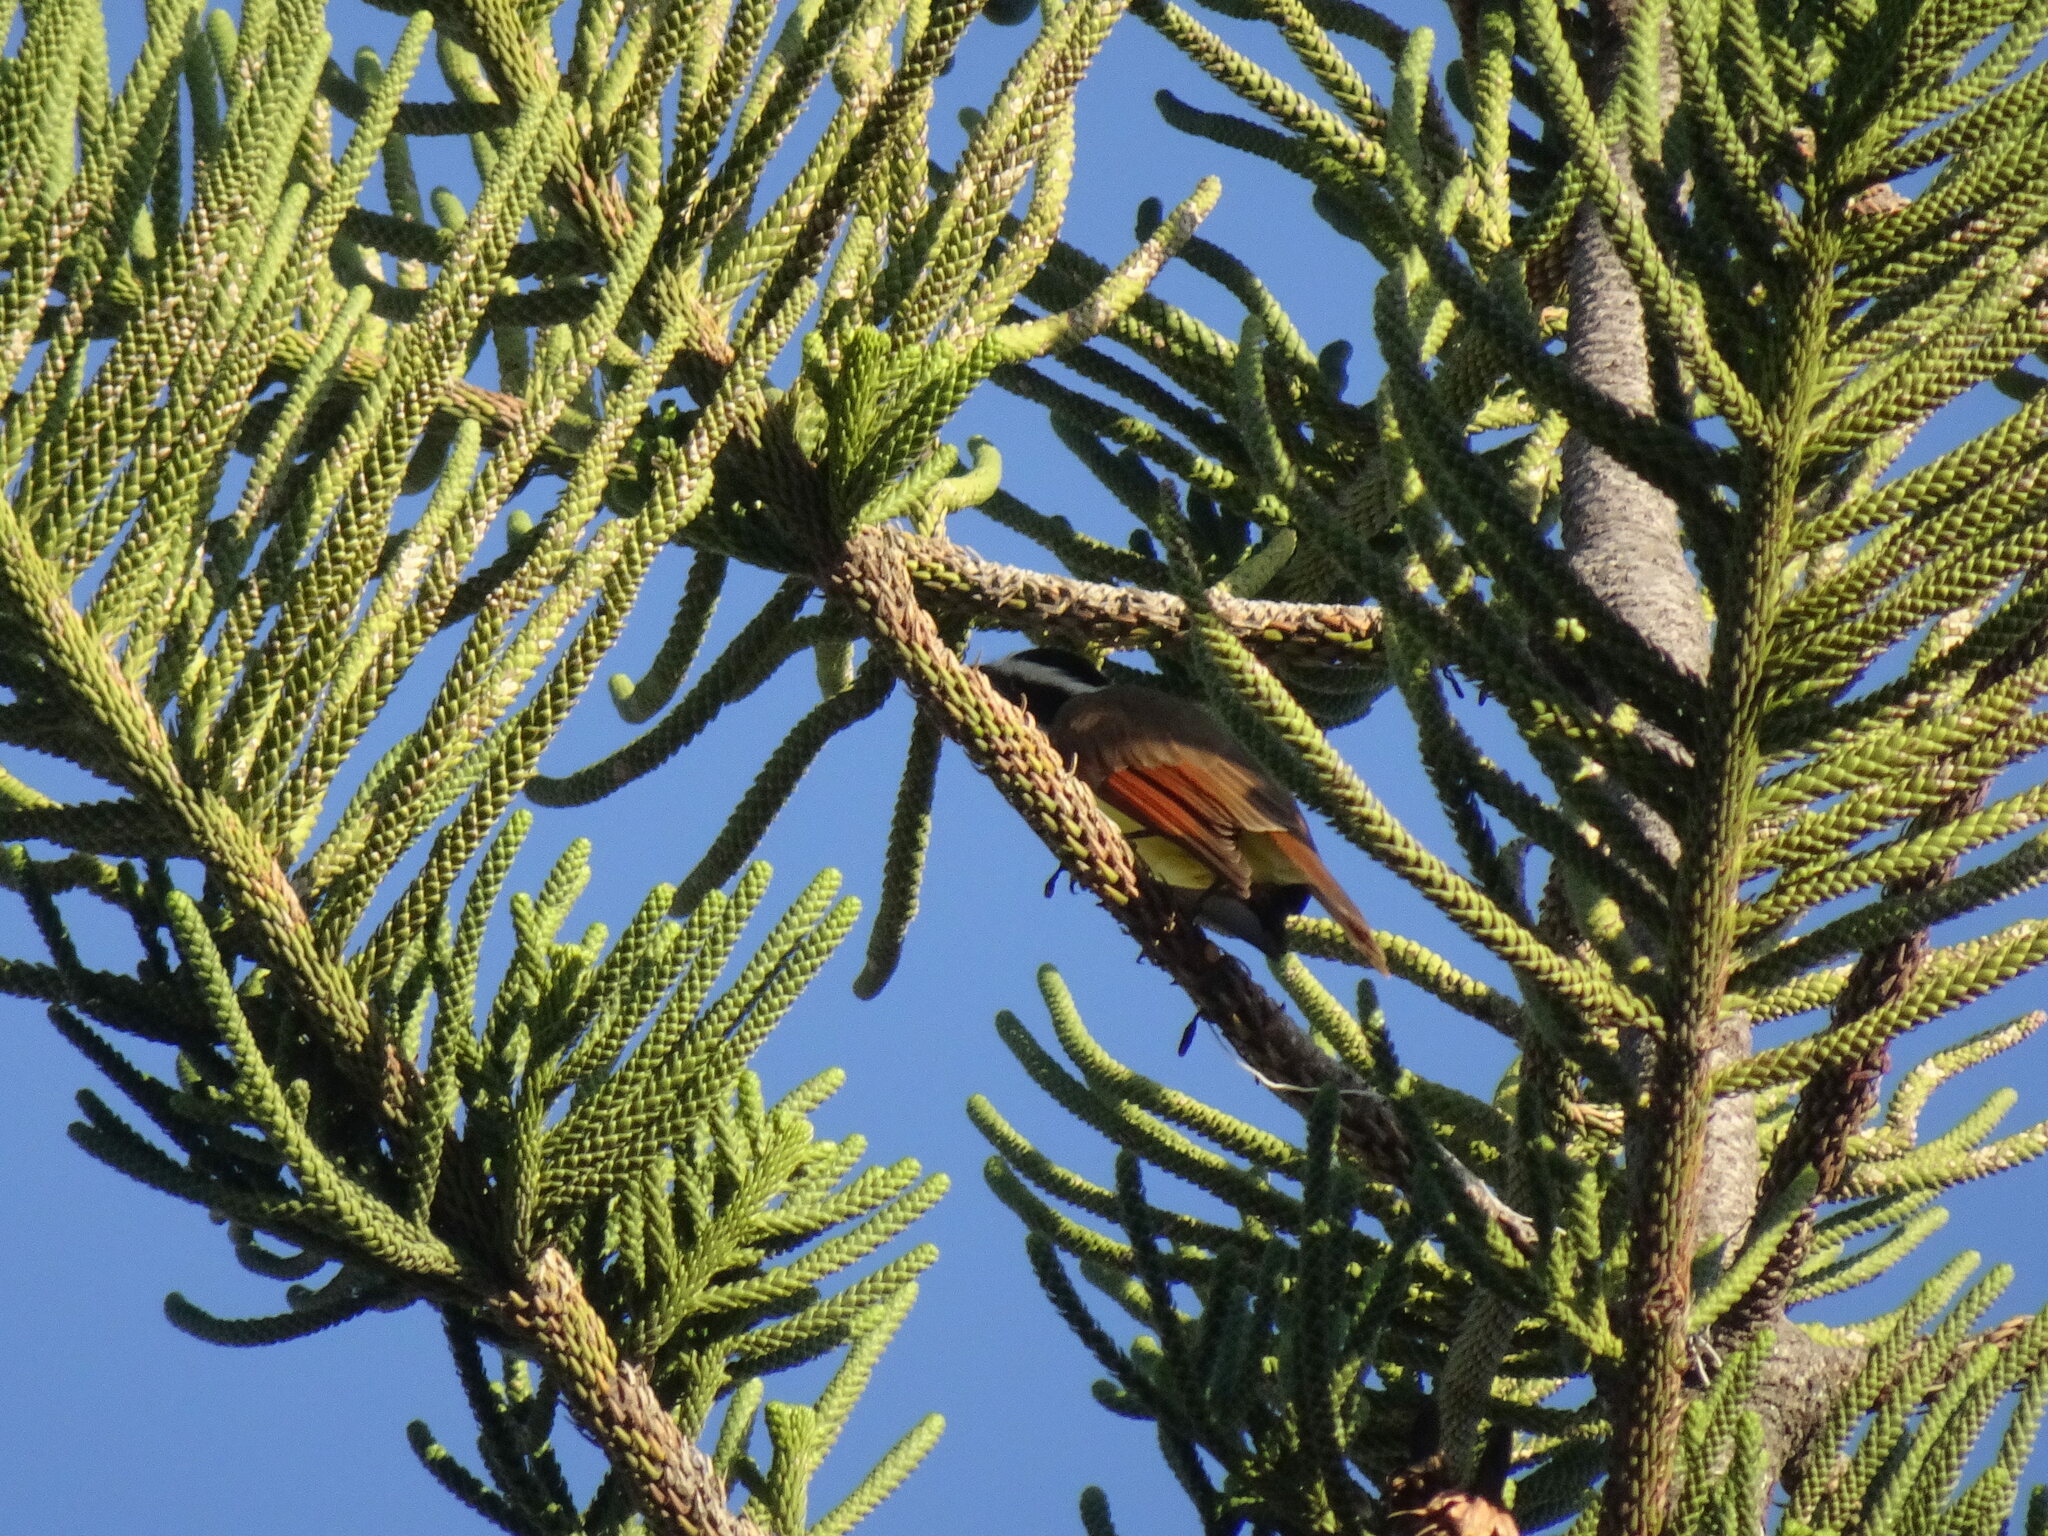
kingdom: Animalia
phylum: Chordata
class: Aves
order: Passeriformes
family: Tyrannidae
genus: Pitangus
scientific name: Pitangus sulphuratus
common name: Great kiskadee
